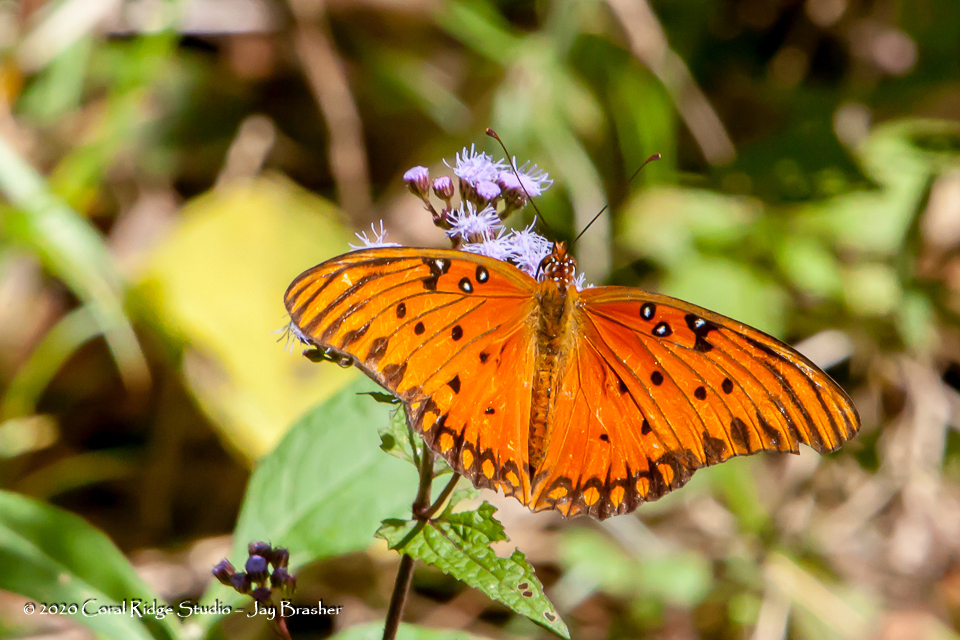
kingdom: Animalia
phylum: Arthropoda
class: Insecta
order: Lepidoptera
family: Nymphalidae
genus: Dione
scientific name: Dione vanillae
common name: Gulf fritillary
